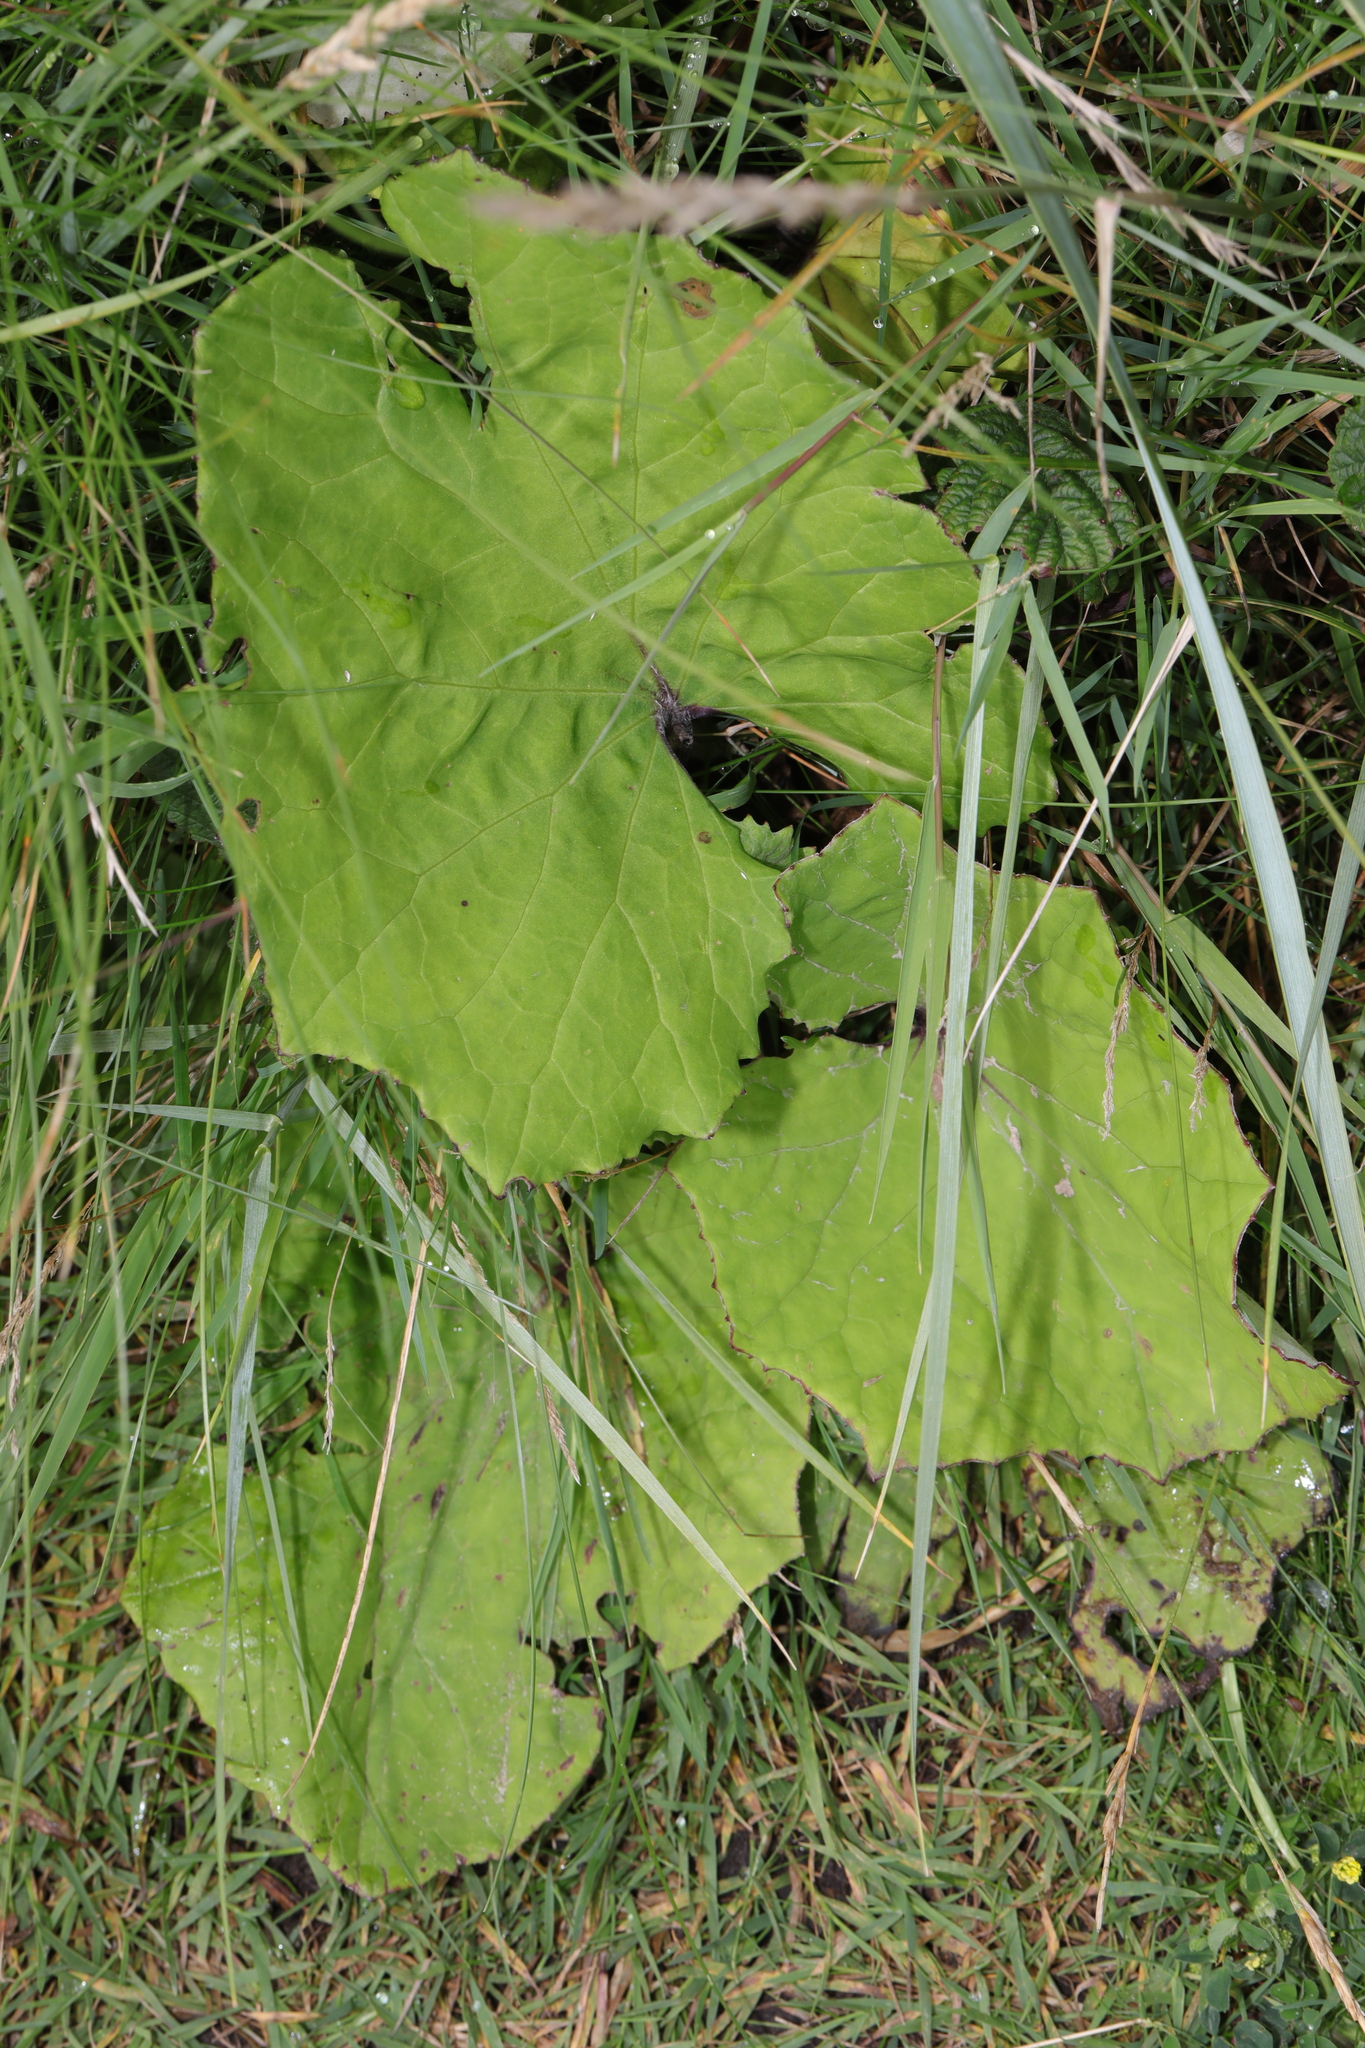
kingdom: Plantae
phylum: Tracheophyta
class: Magnoliopsida
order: Asterales
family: Asteraceae
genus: Tussilago
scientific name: Tussilago farfara
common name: Coltsfoot
